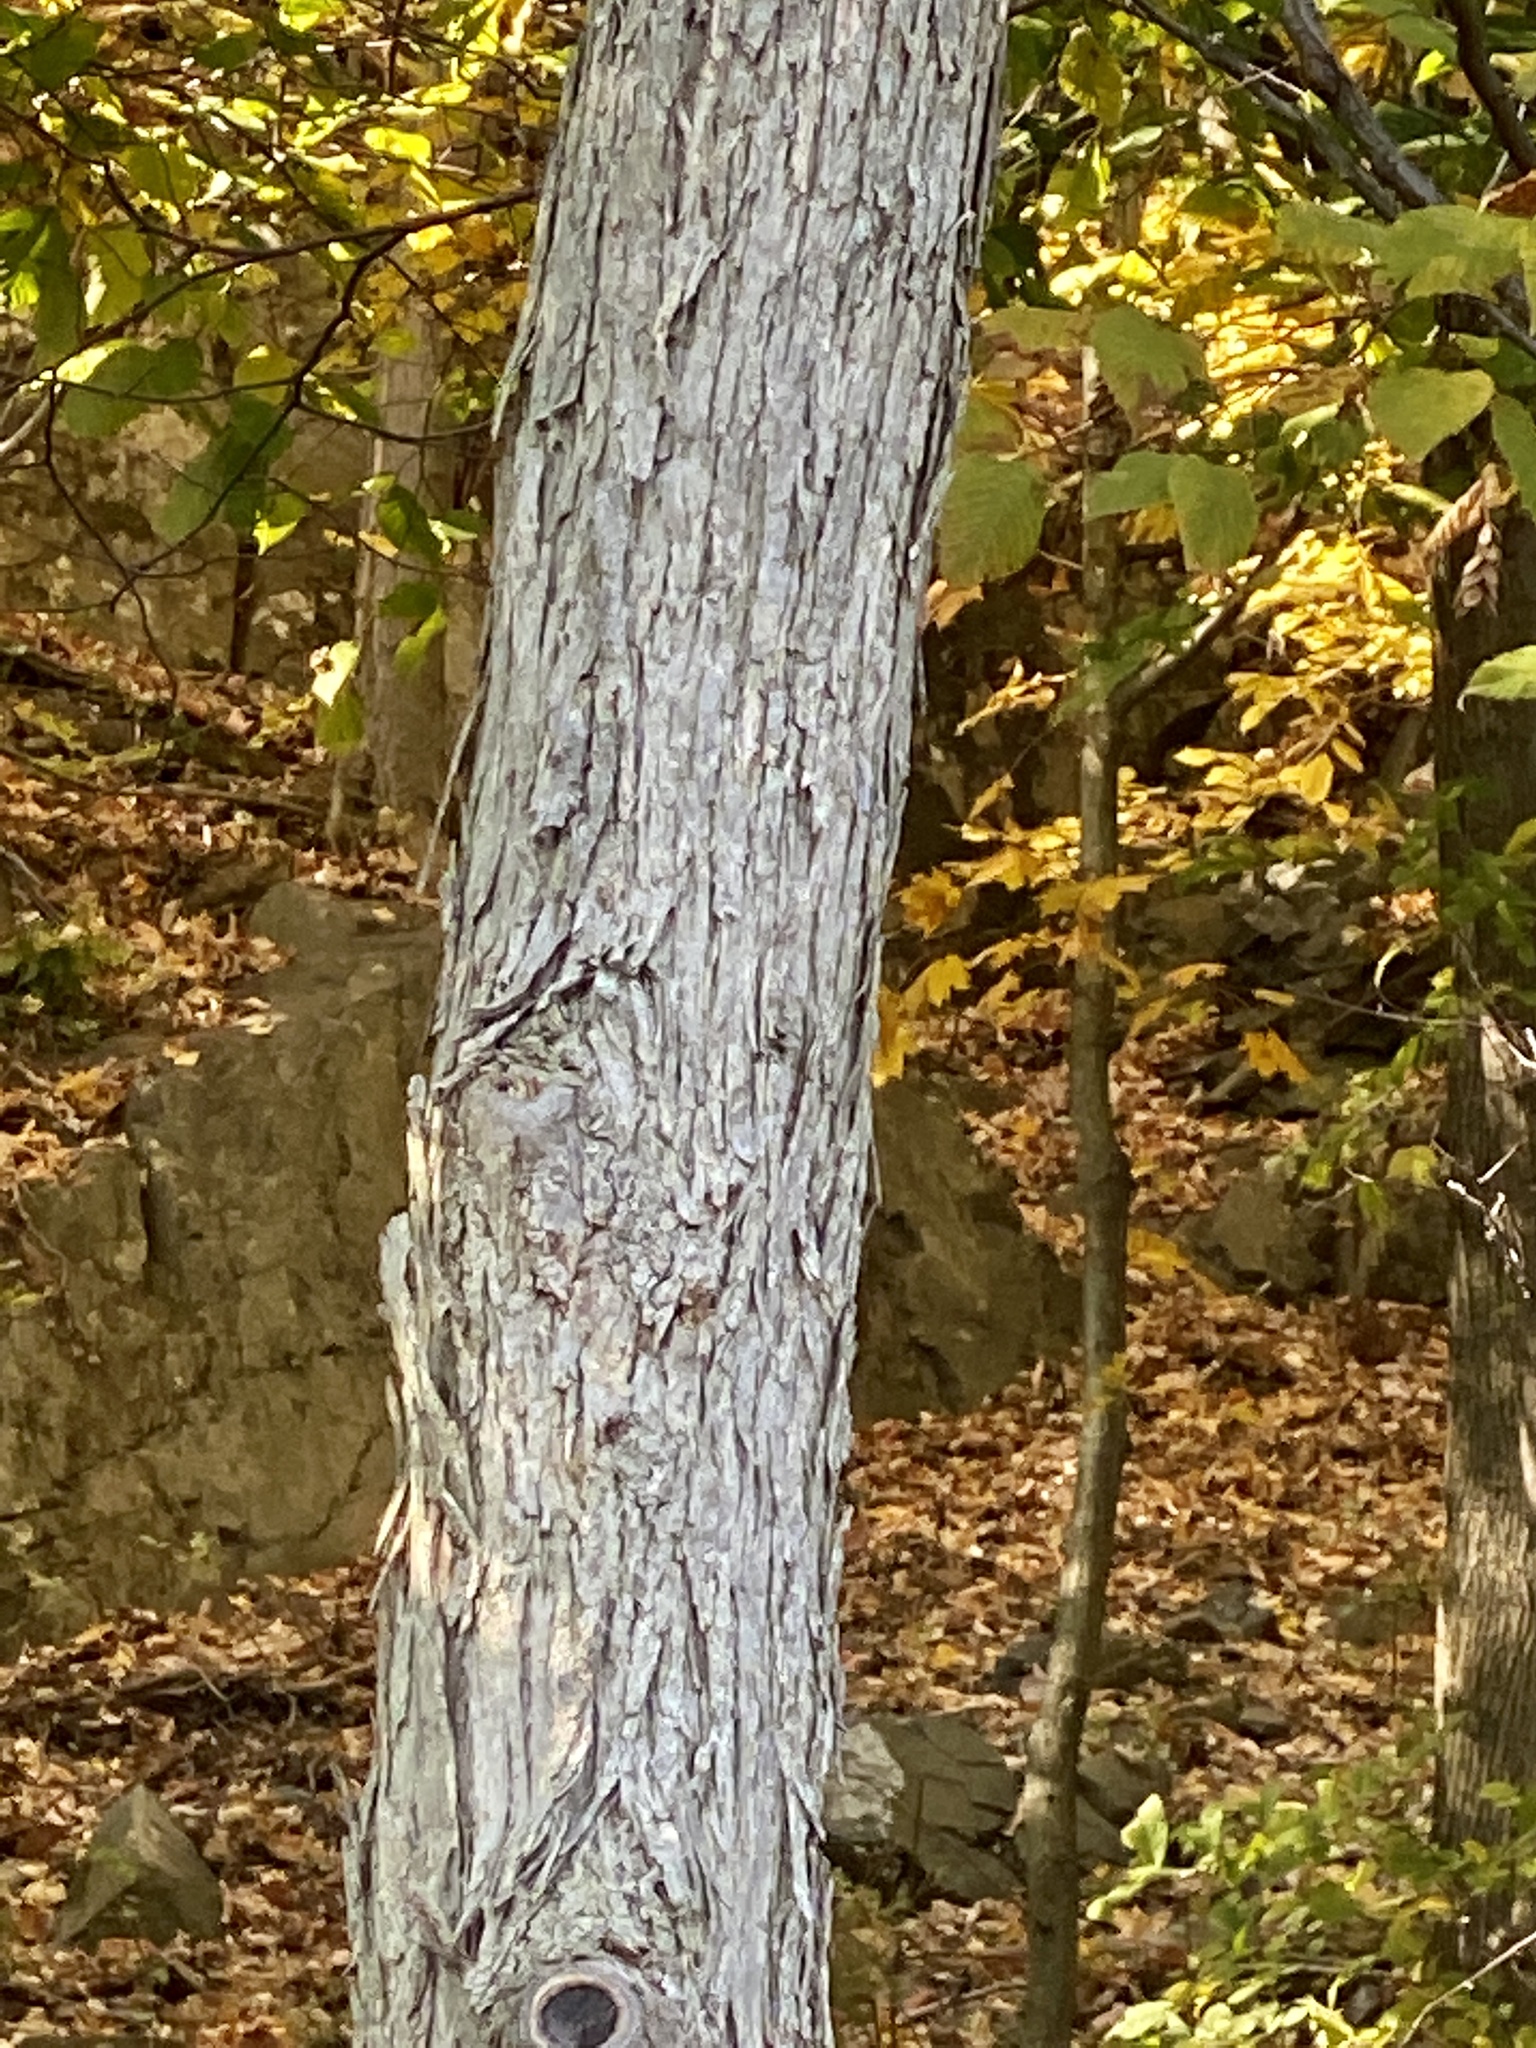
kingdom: Plantae
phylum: Tracheophyta
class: Magnoliopsida
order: Fagales
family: Betulaceae
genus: Ostrya
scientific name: Ostrya virginiana
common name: Ironwood
